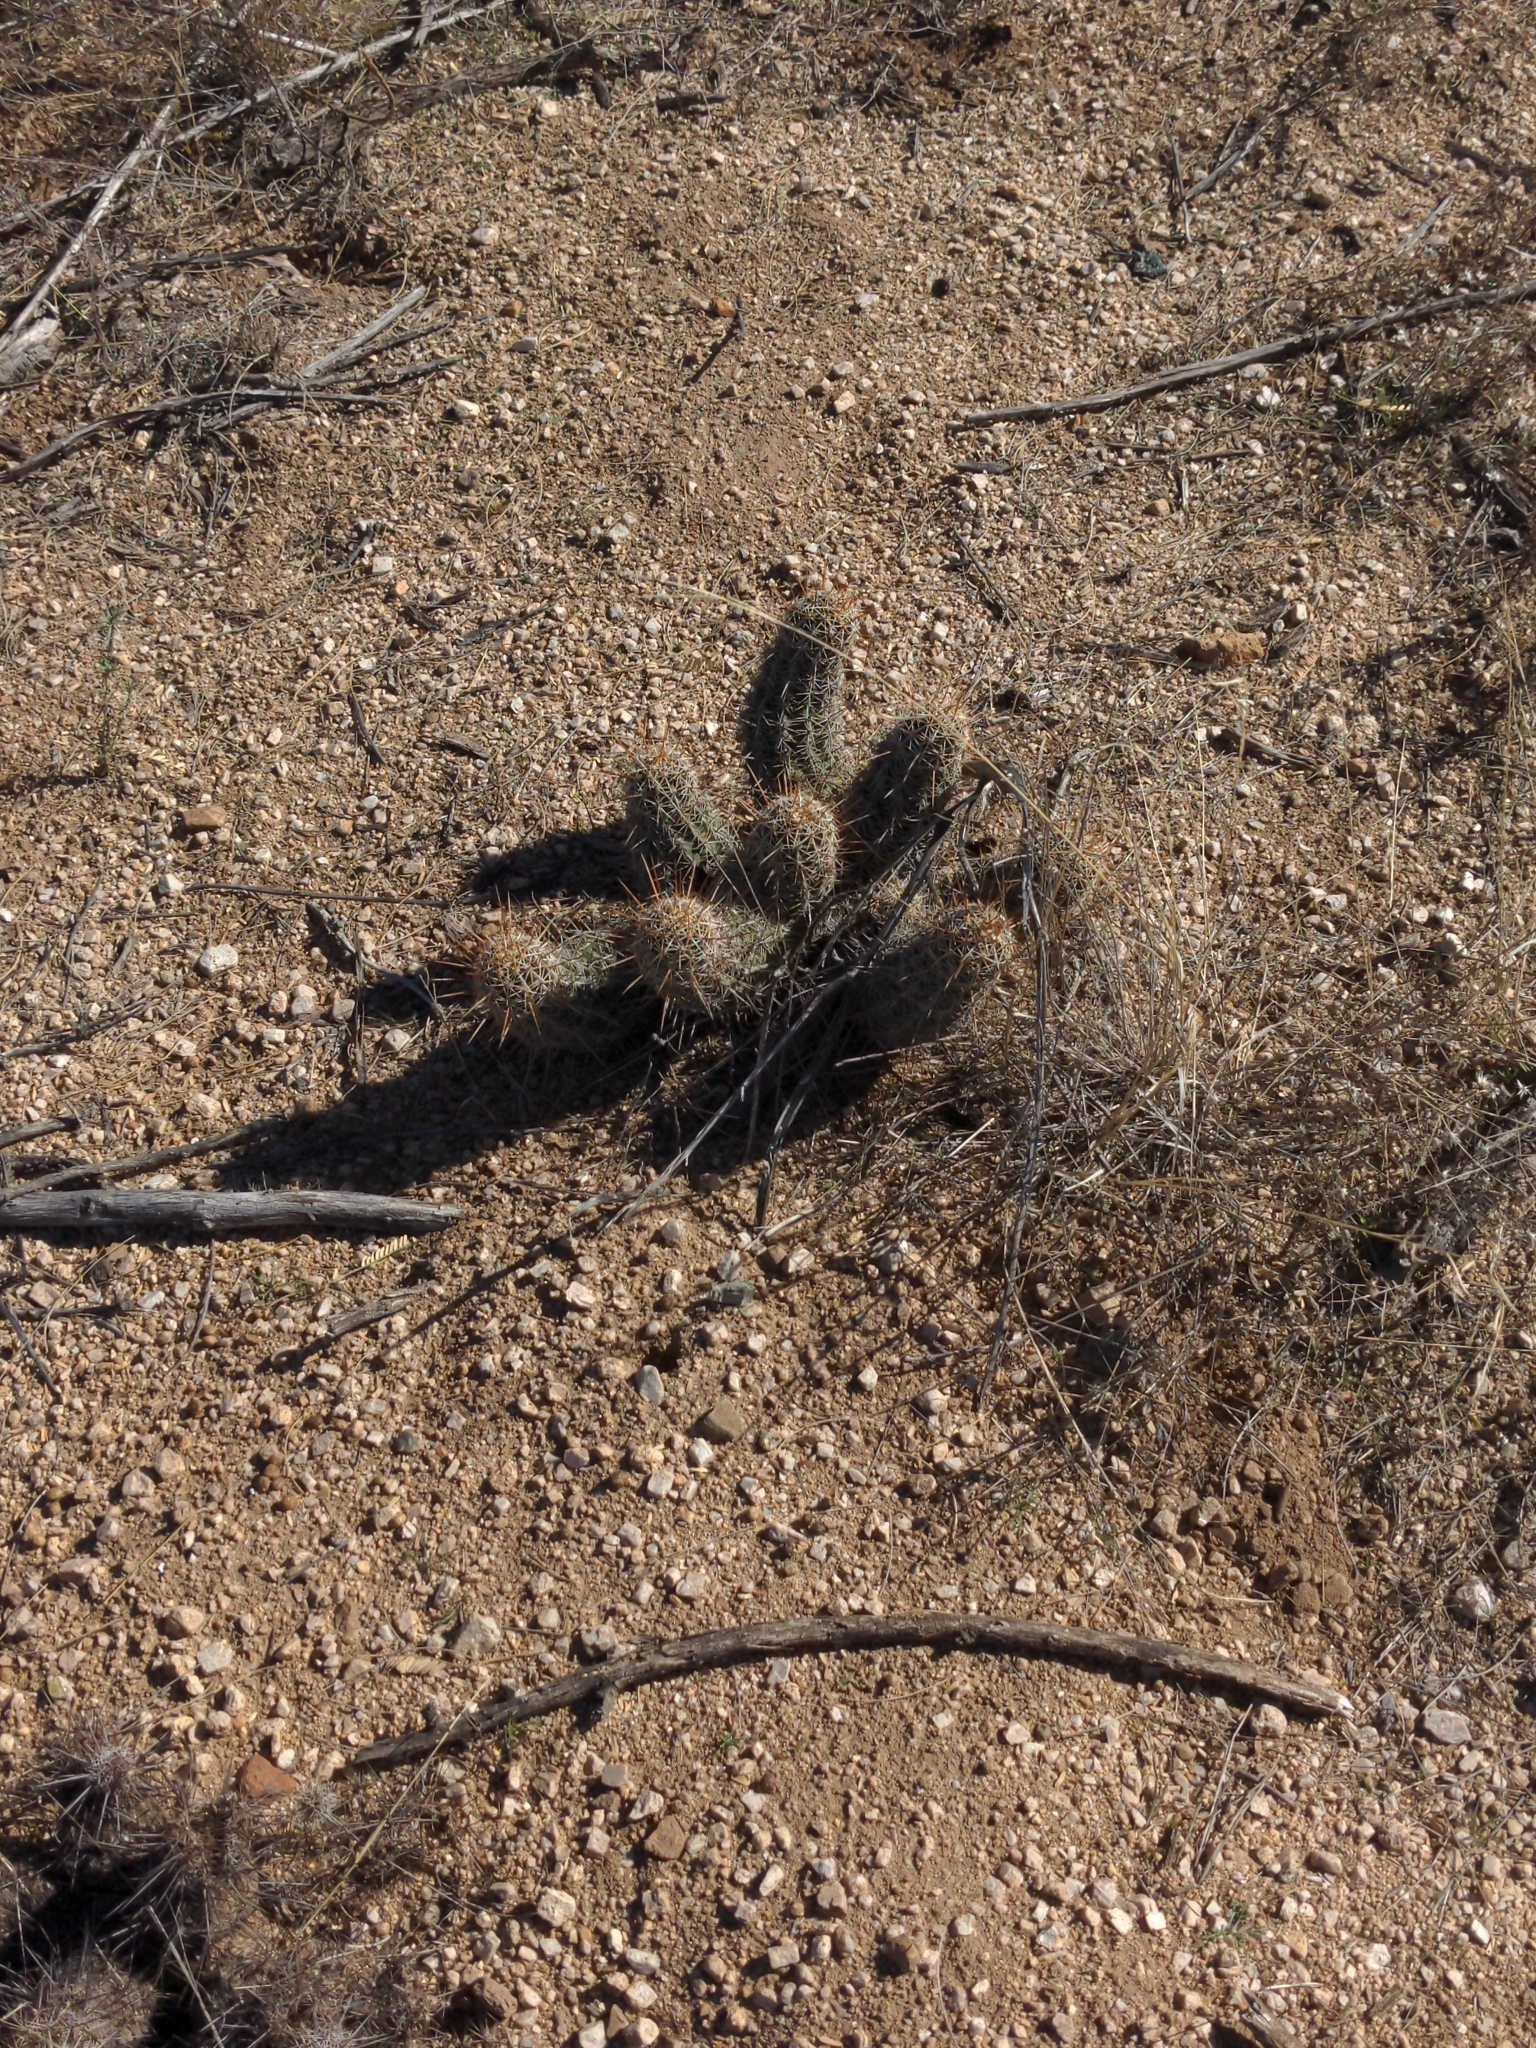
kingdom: Plantae
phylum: Tracheophyta
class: Magnoliopsida
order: Caryophyllales
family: Cactaceae
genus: Echinocereus
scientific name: Echinocereus fasciculatus
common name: Bundle hedgehog
